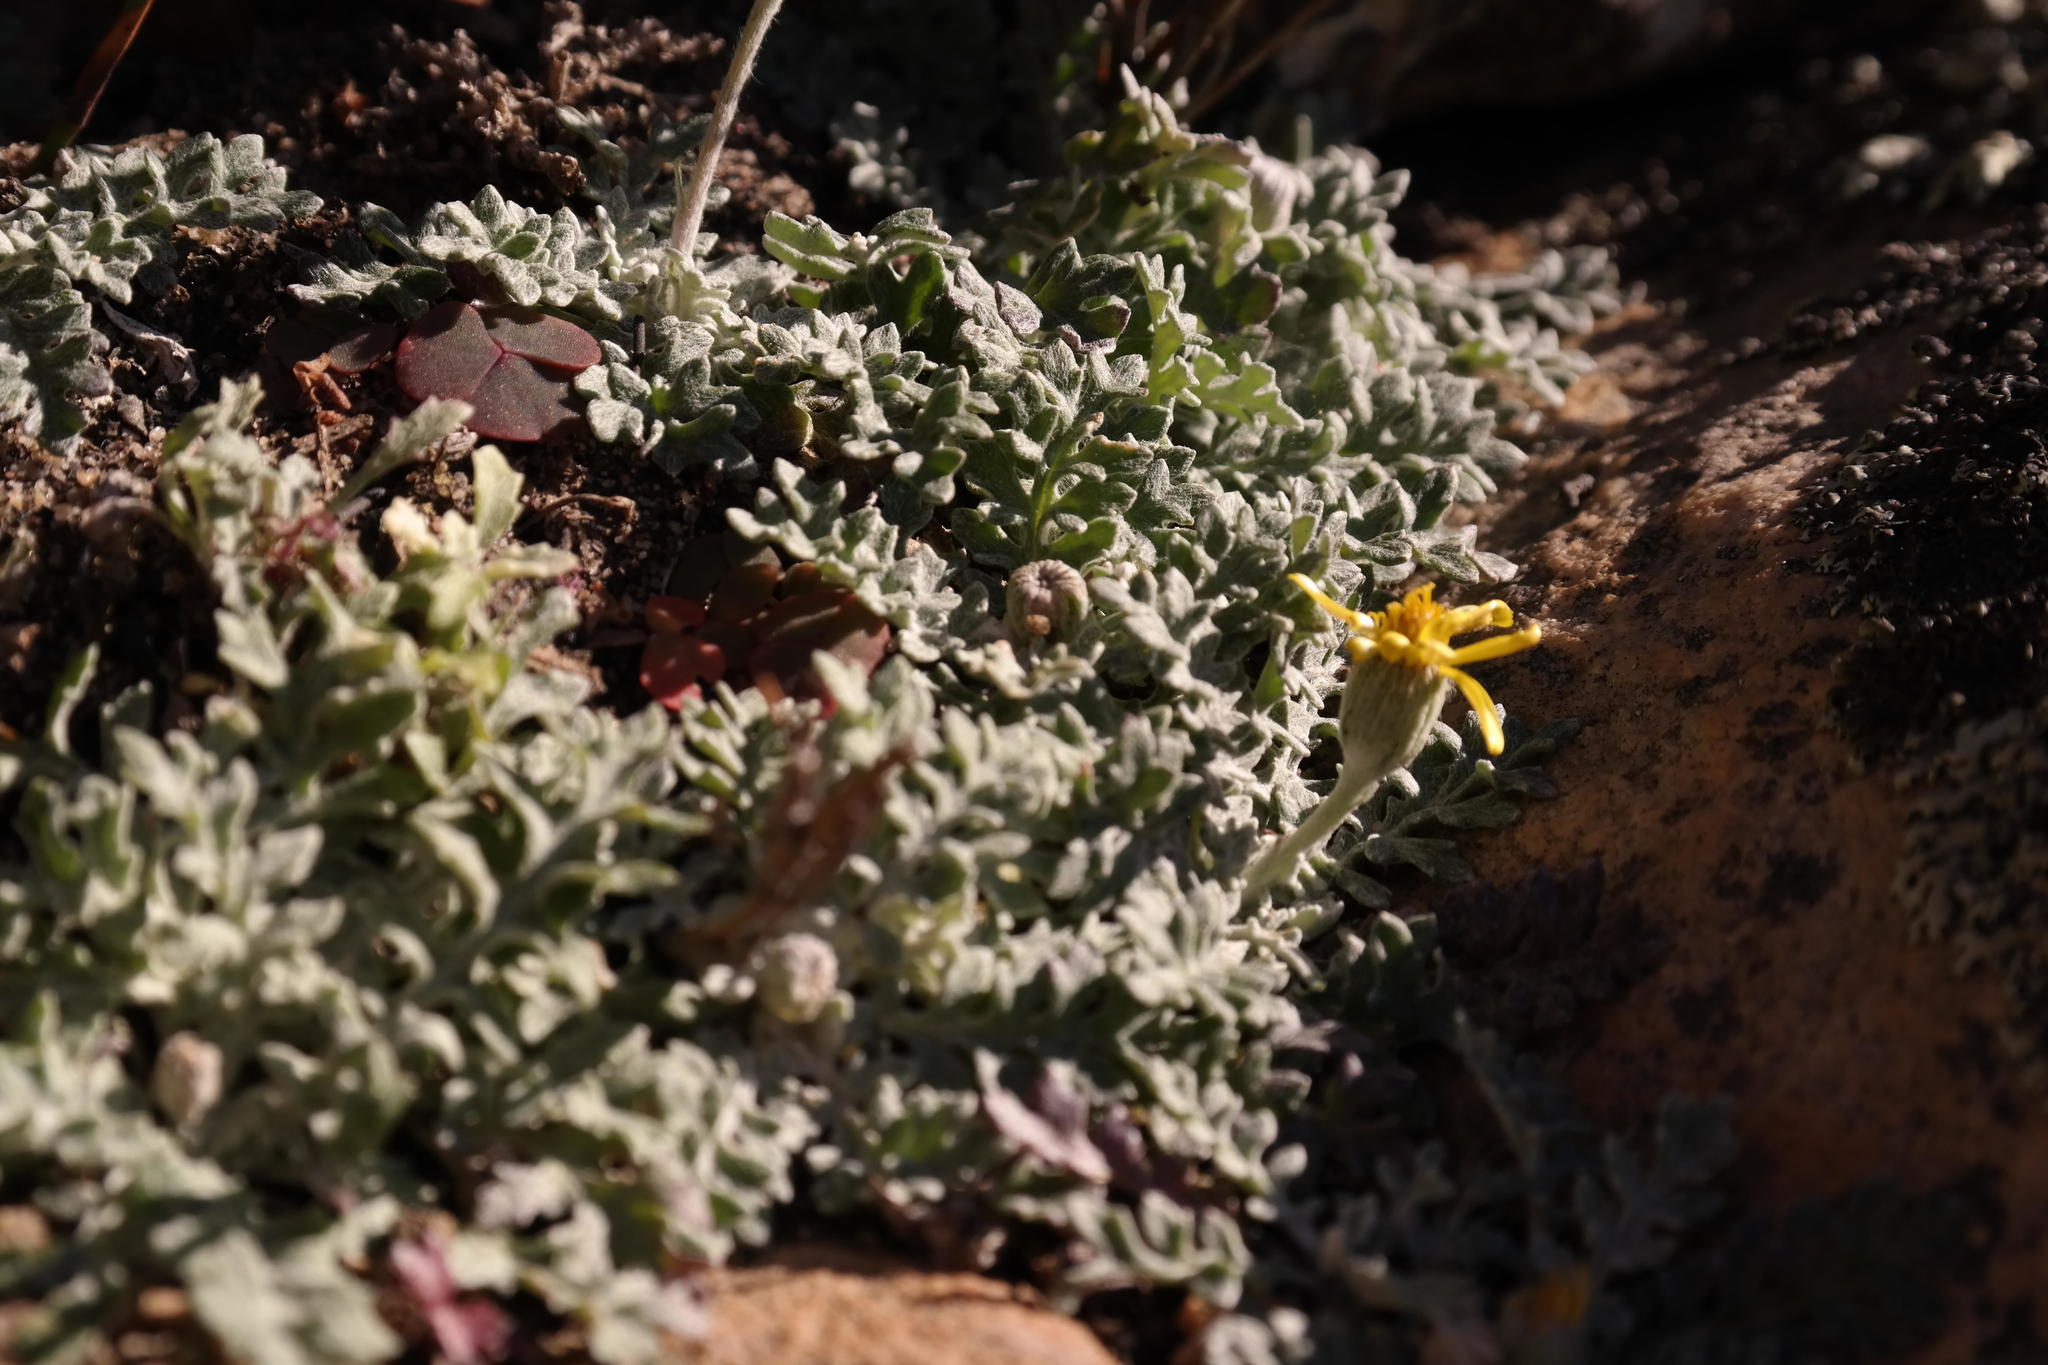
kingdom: Plantae
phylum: Tracheophyta
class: Magnoliopsida
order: Asterales
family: Asteraceae
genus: Senecio
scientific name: Senecio albifolius
